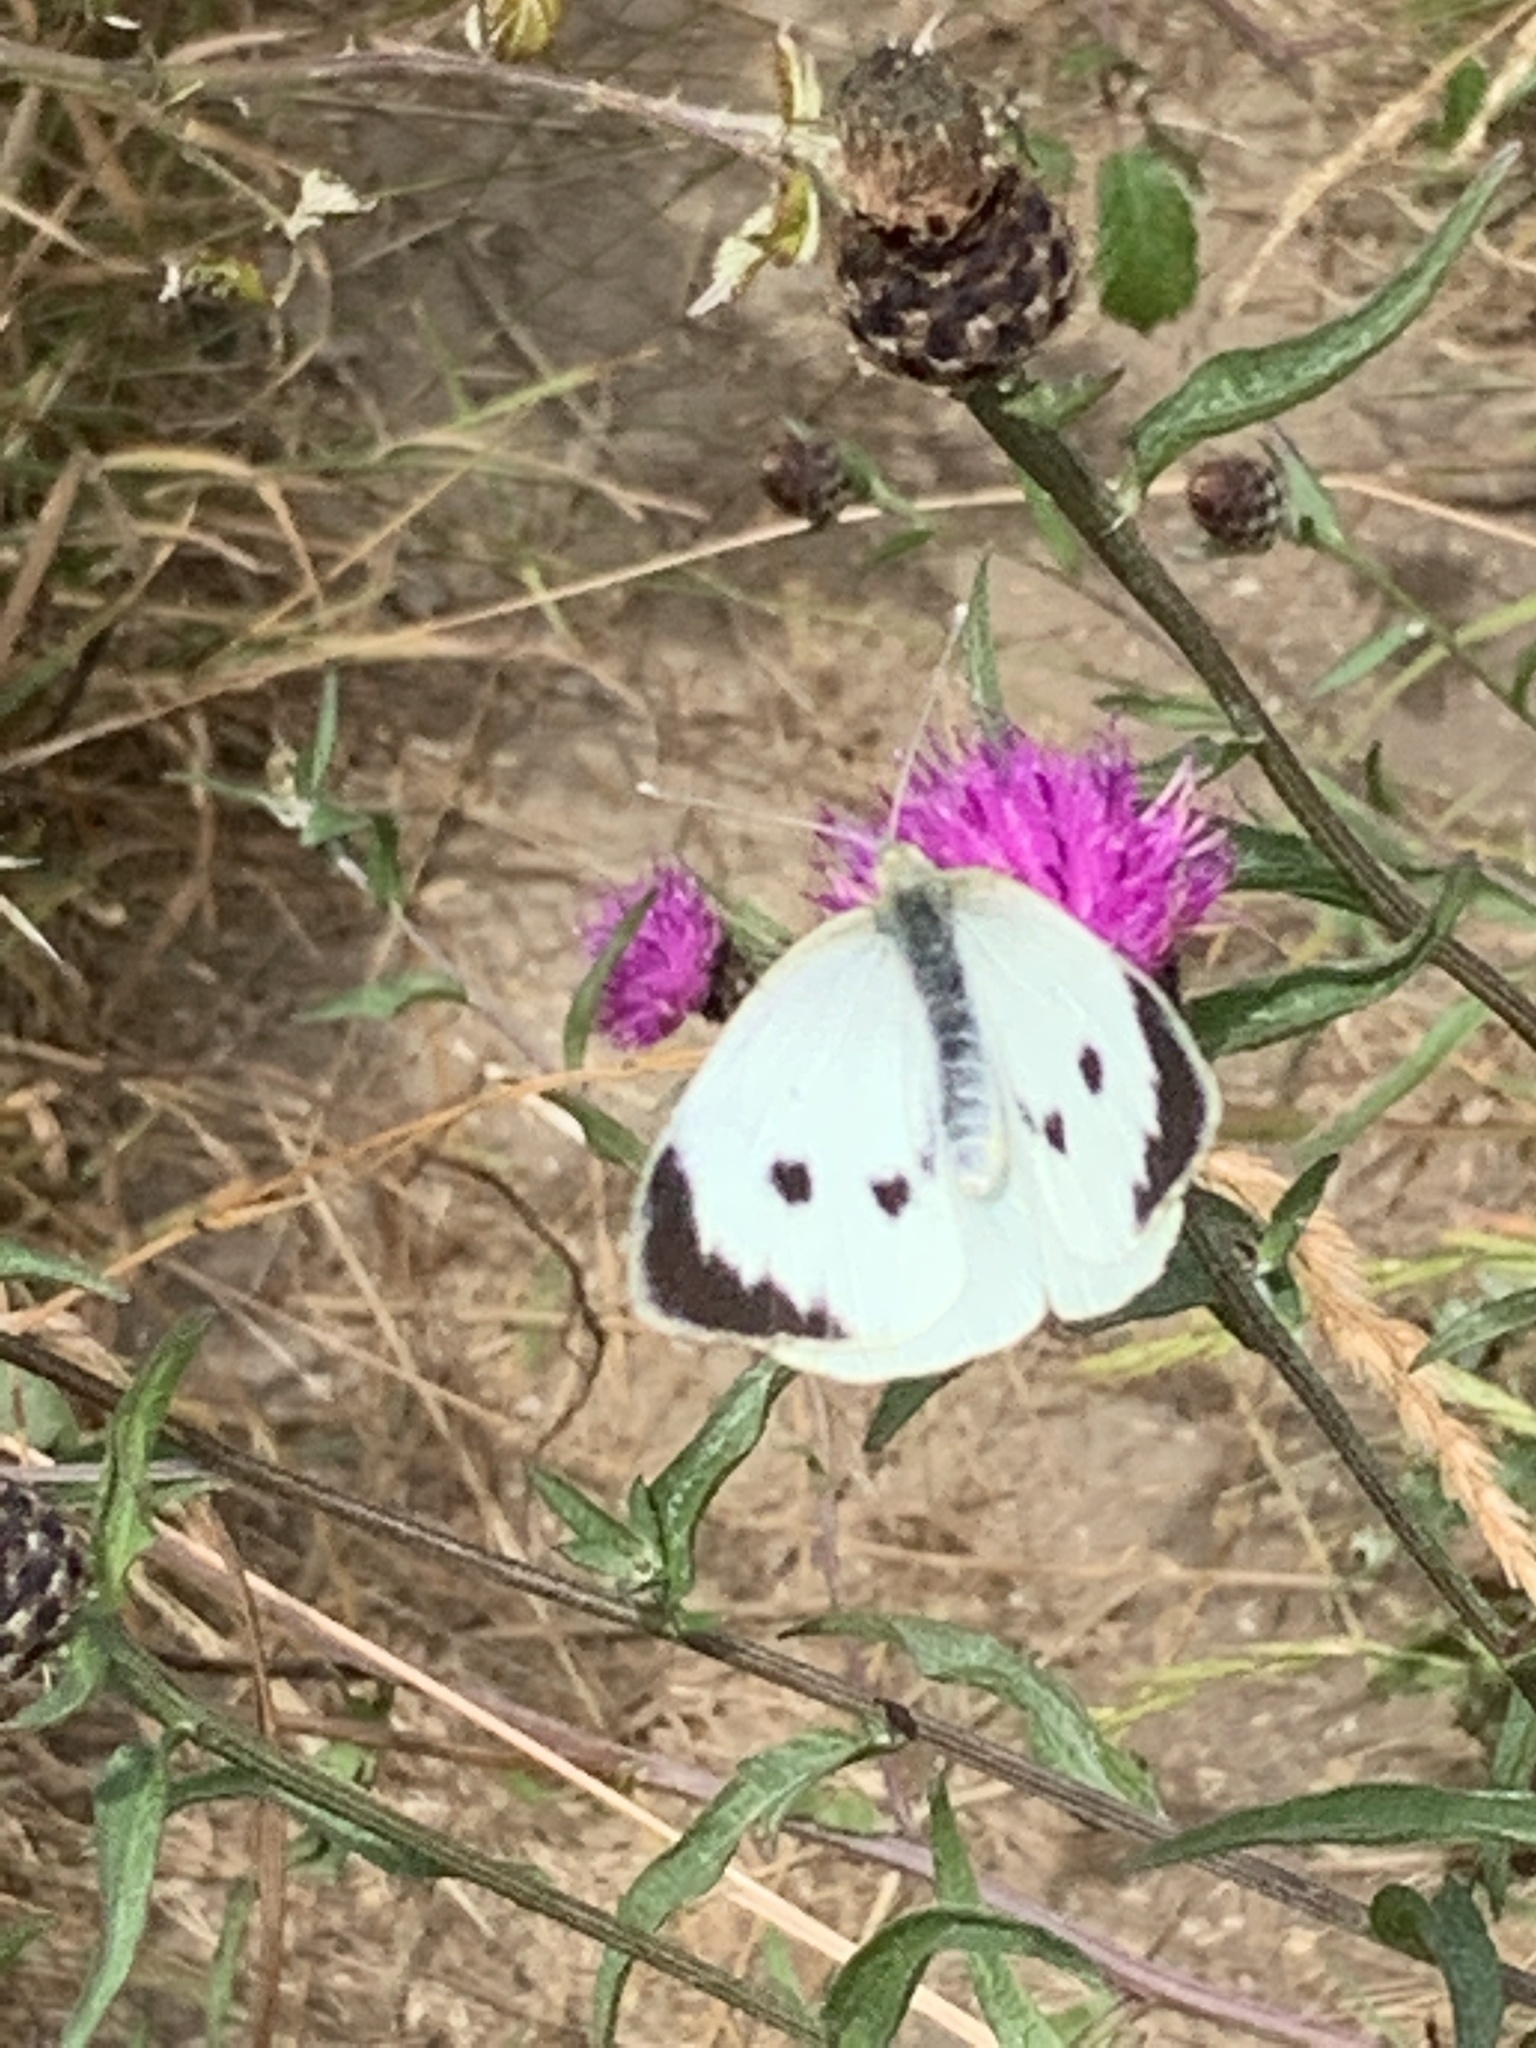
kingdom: Animalia
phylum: Arthropoda
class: Insecta
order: Lepidoptera
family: Pieridae
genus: Pieris
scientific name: Pieris brassicae
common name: Large white
